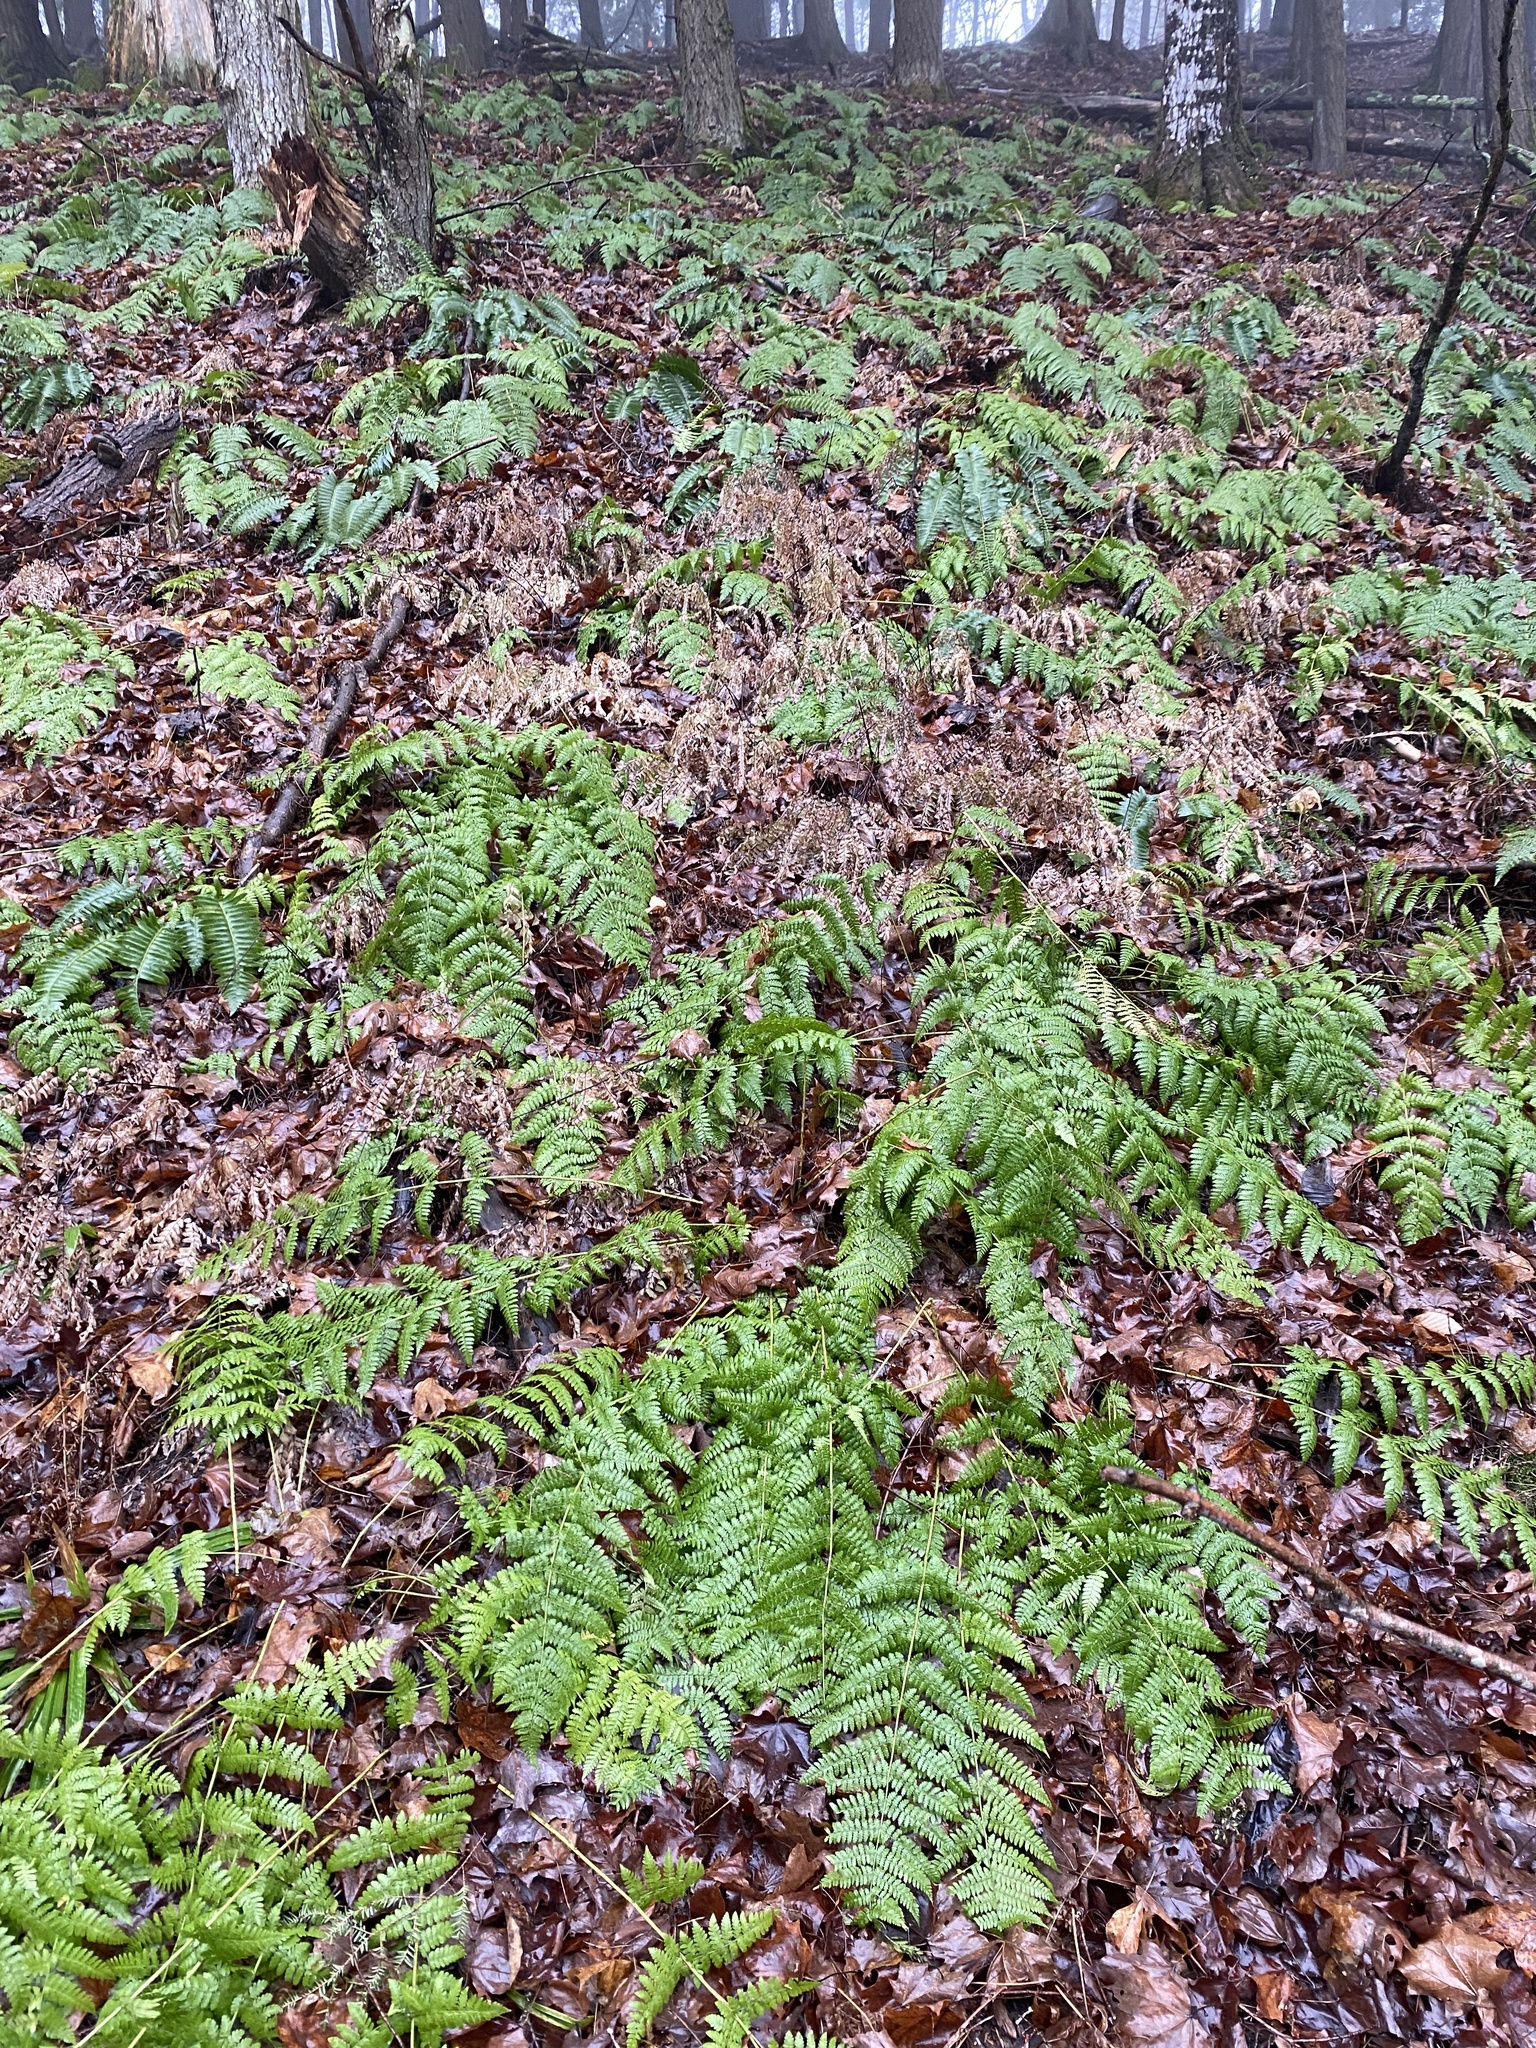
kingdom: Plantae
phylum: Tracheophyta
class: Polypodiopsida
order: Polypodiales
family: Dryopteridaceae
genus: Dryopteris
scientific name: Dryopteris intermedia
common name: Evergreen wood fern
